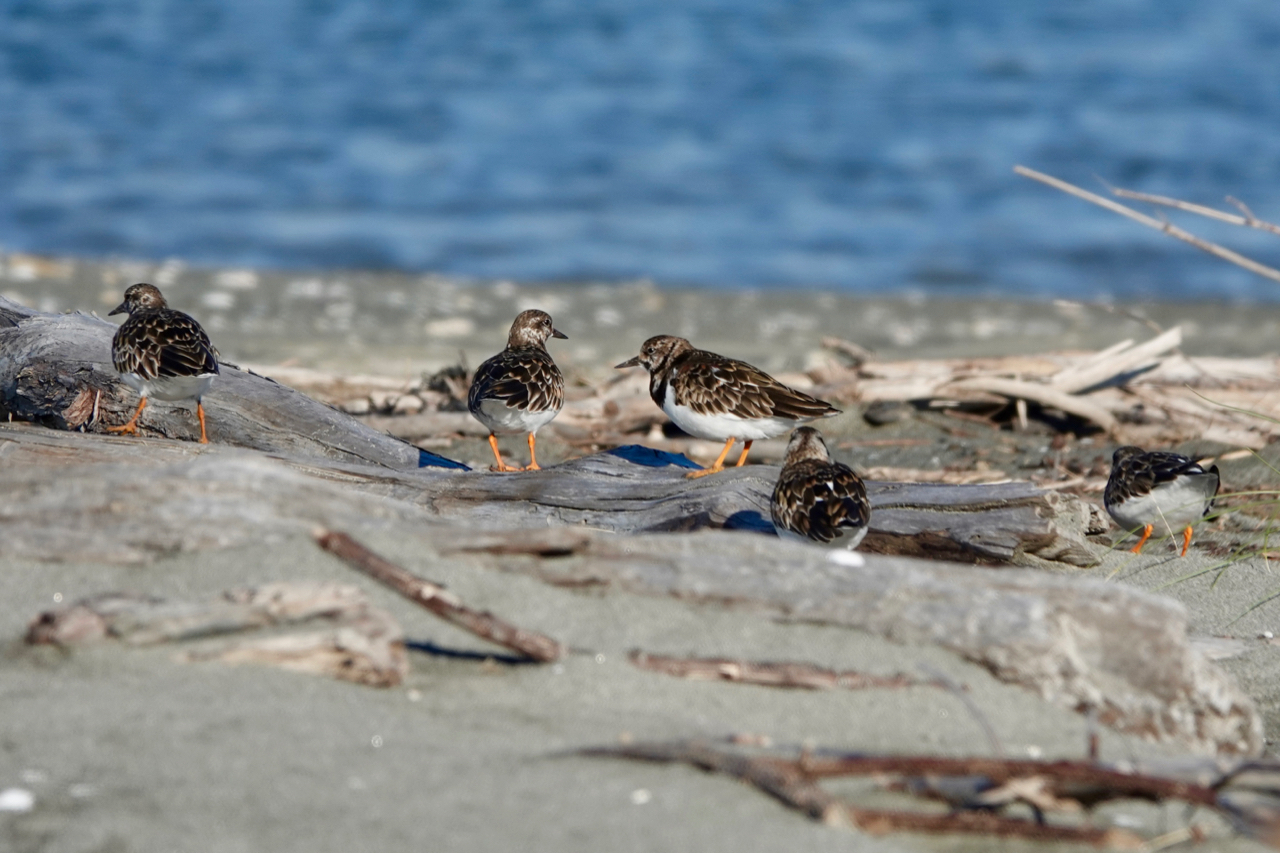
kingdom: Animalia
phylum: Chordata
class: Aves
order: Charadriiformes
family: Scolopacidae
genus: Arenaria
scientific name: Arenaria interpres
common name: Ruddy turnstone
